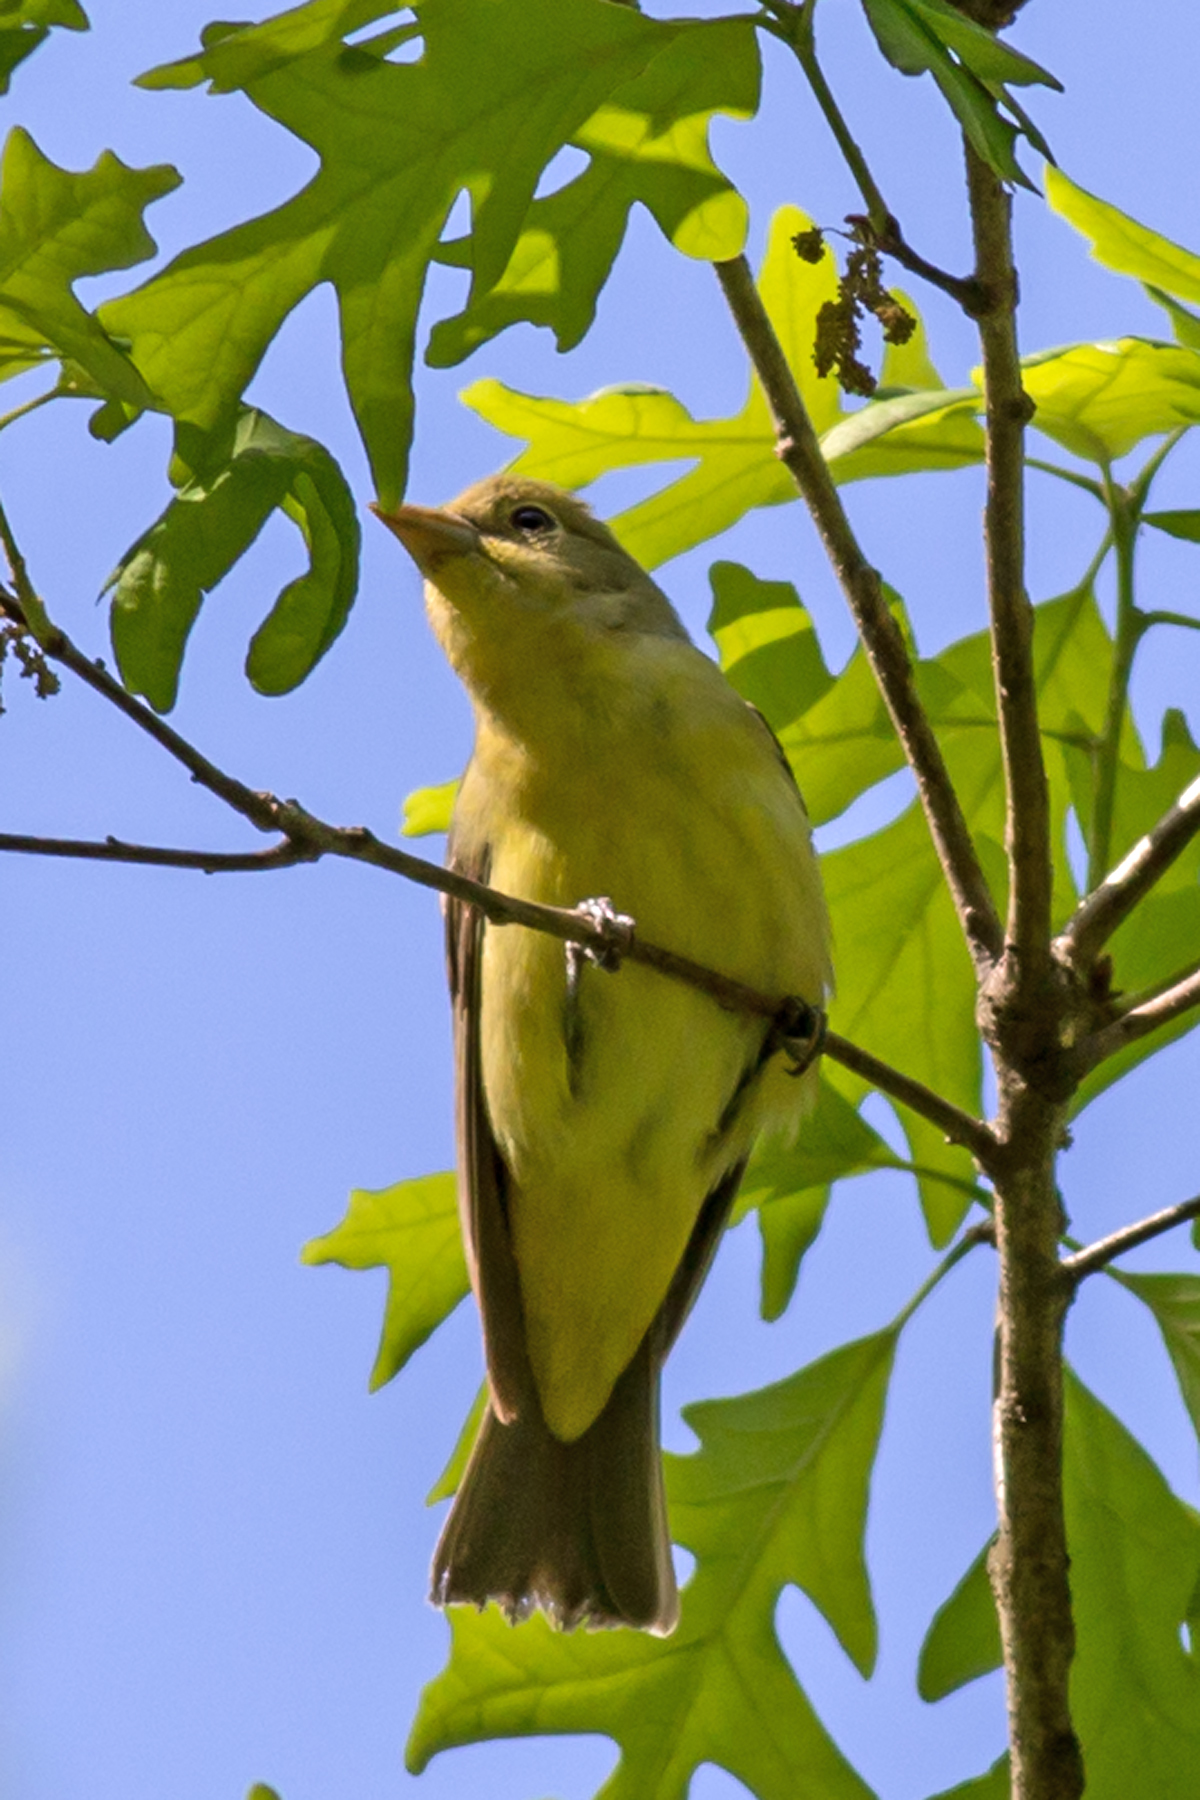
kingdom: Animalia
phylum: Chordata
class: Aves
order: Passeriformes
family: Cardinalidae
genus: Piranga
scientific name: Piranga olivacea
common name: Scarlet tanager
